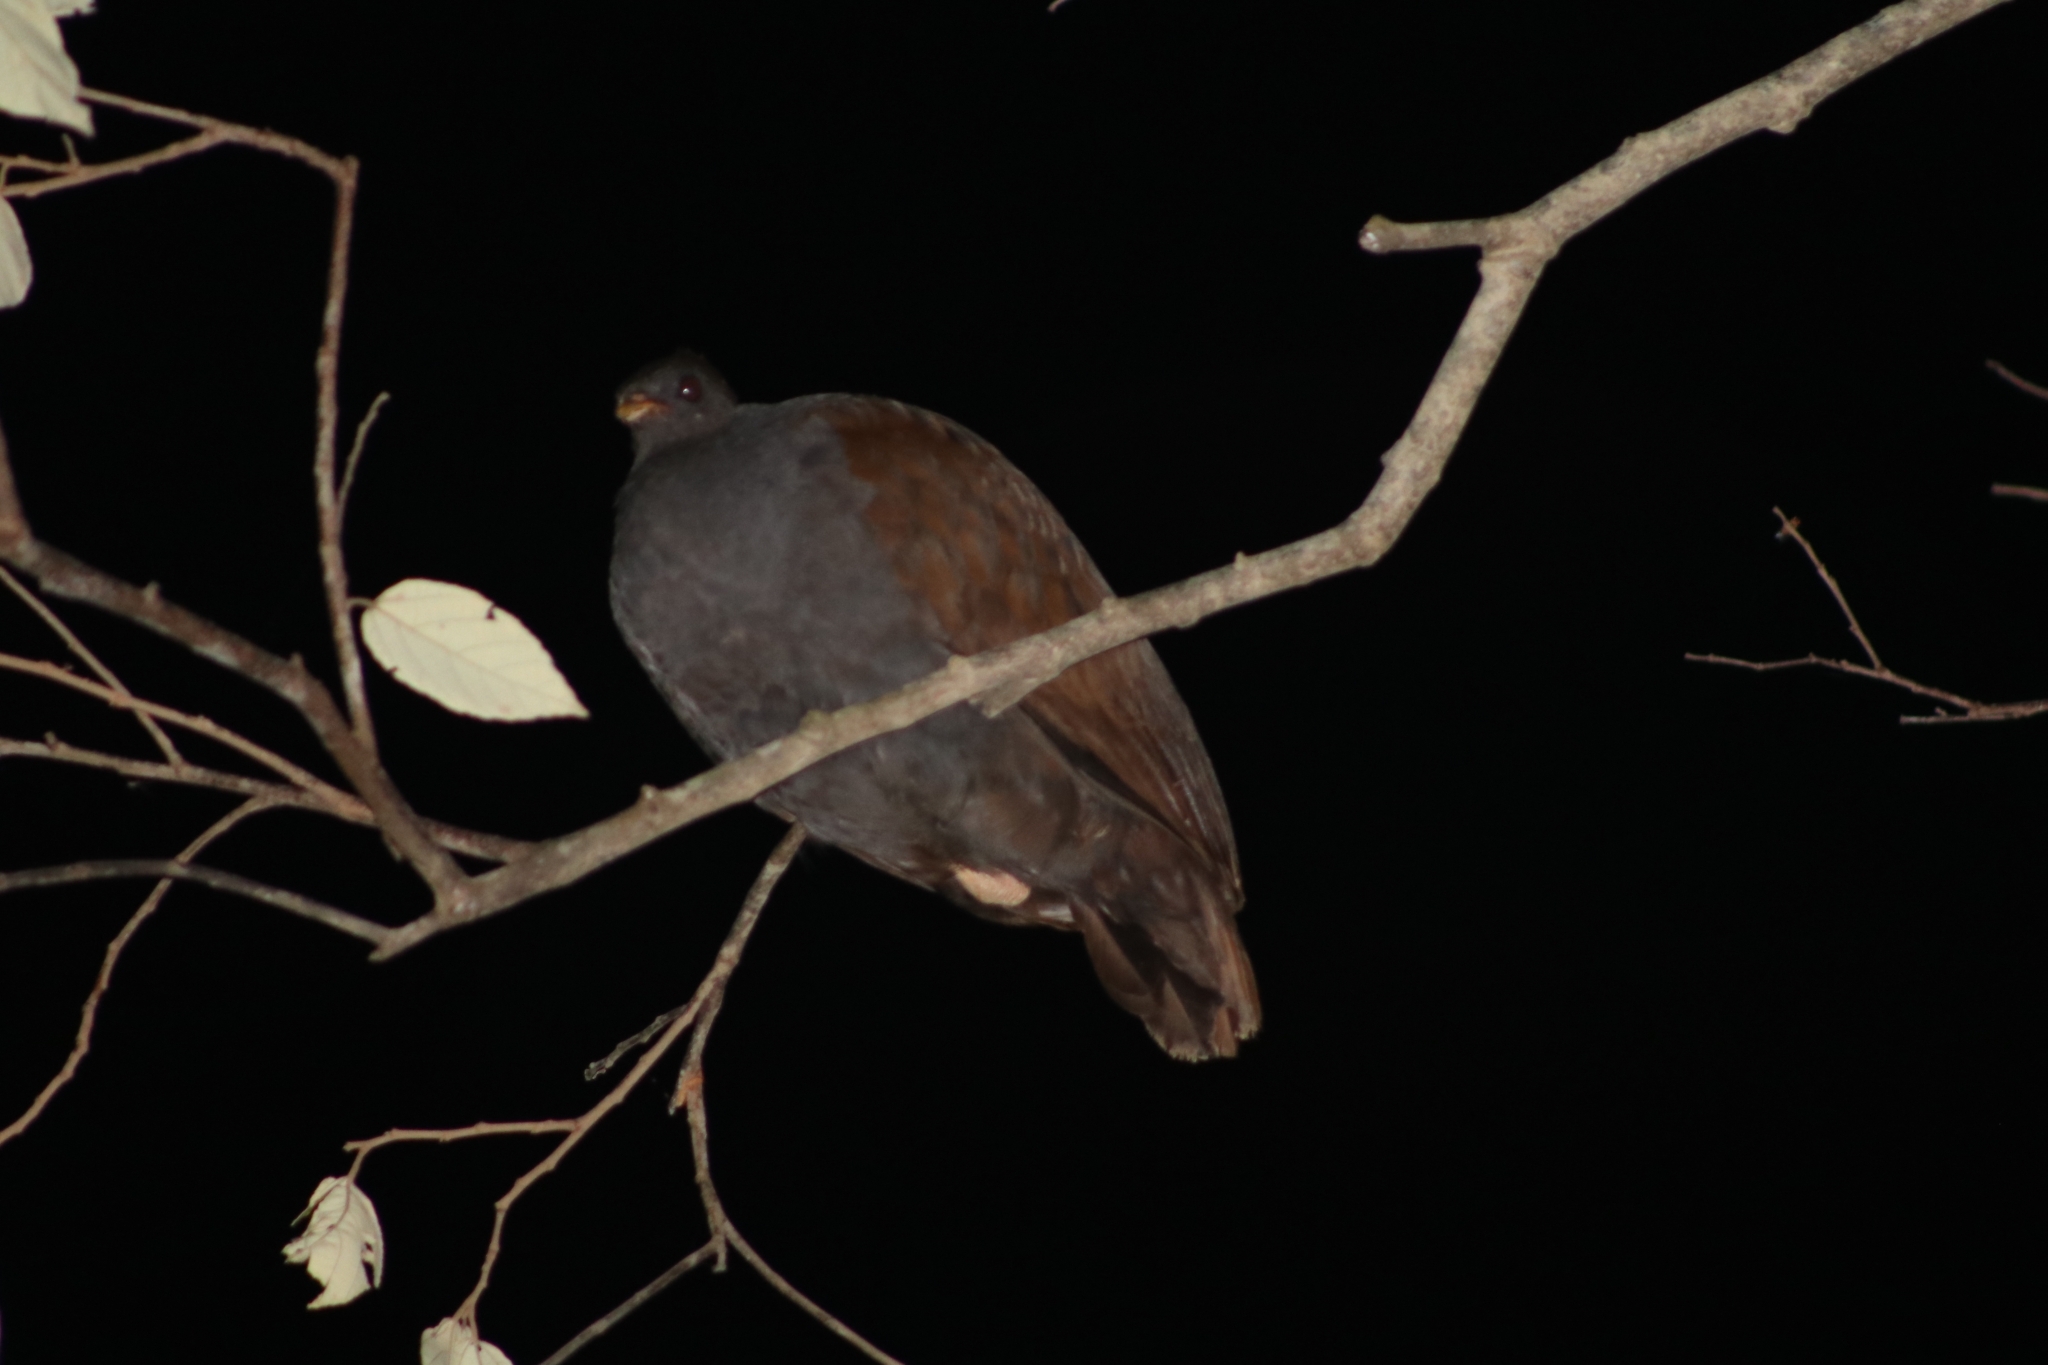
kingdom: Animalia
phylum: Chordata
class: Aves
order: Galliformes
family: Megapodiidae
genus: Megapodius
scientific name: Megapodius reinwardt
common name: Orange-footed scrubfowl
